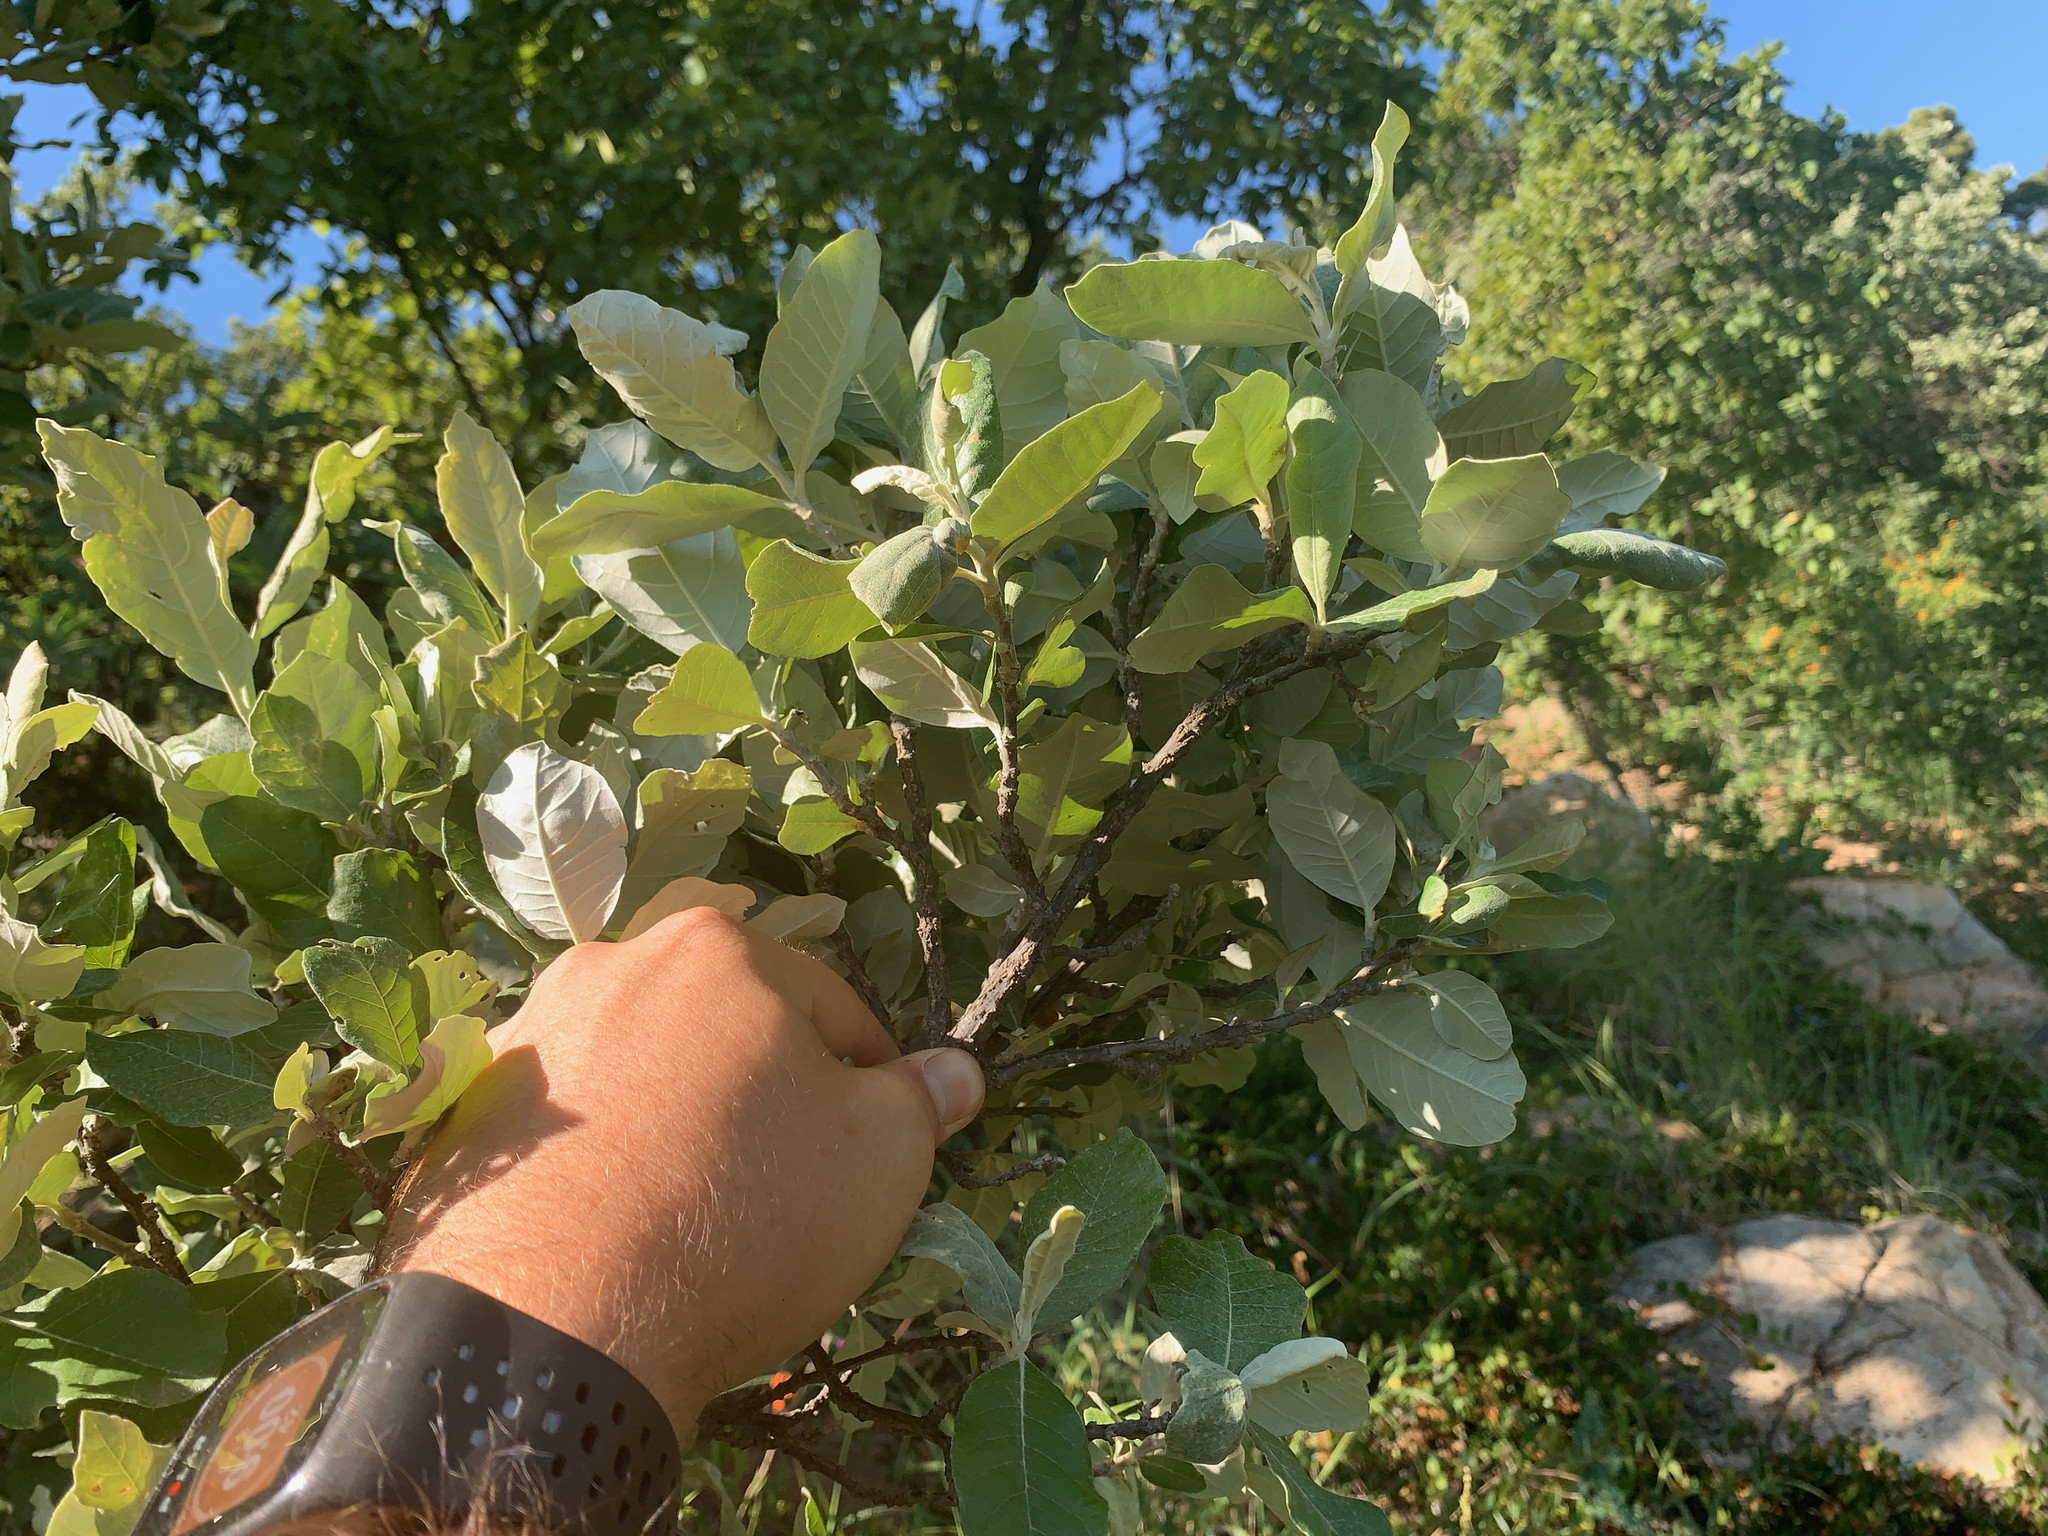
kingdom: Plantae
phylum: Tracheophyta
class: Magnoliopsida
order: Asterales
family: Asteraceae
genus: Brachylaena
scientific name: Brachylaena discolor
